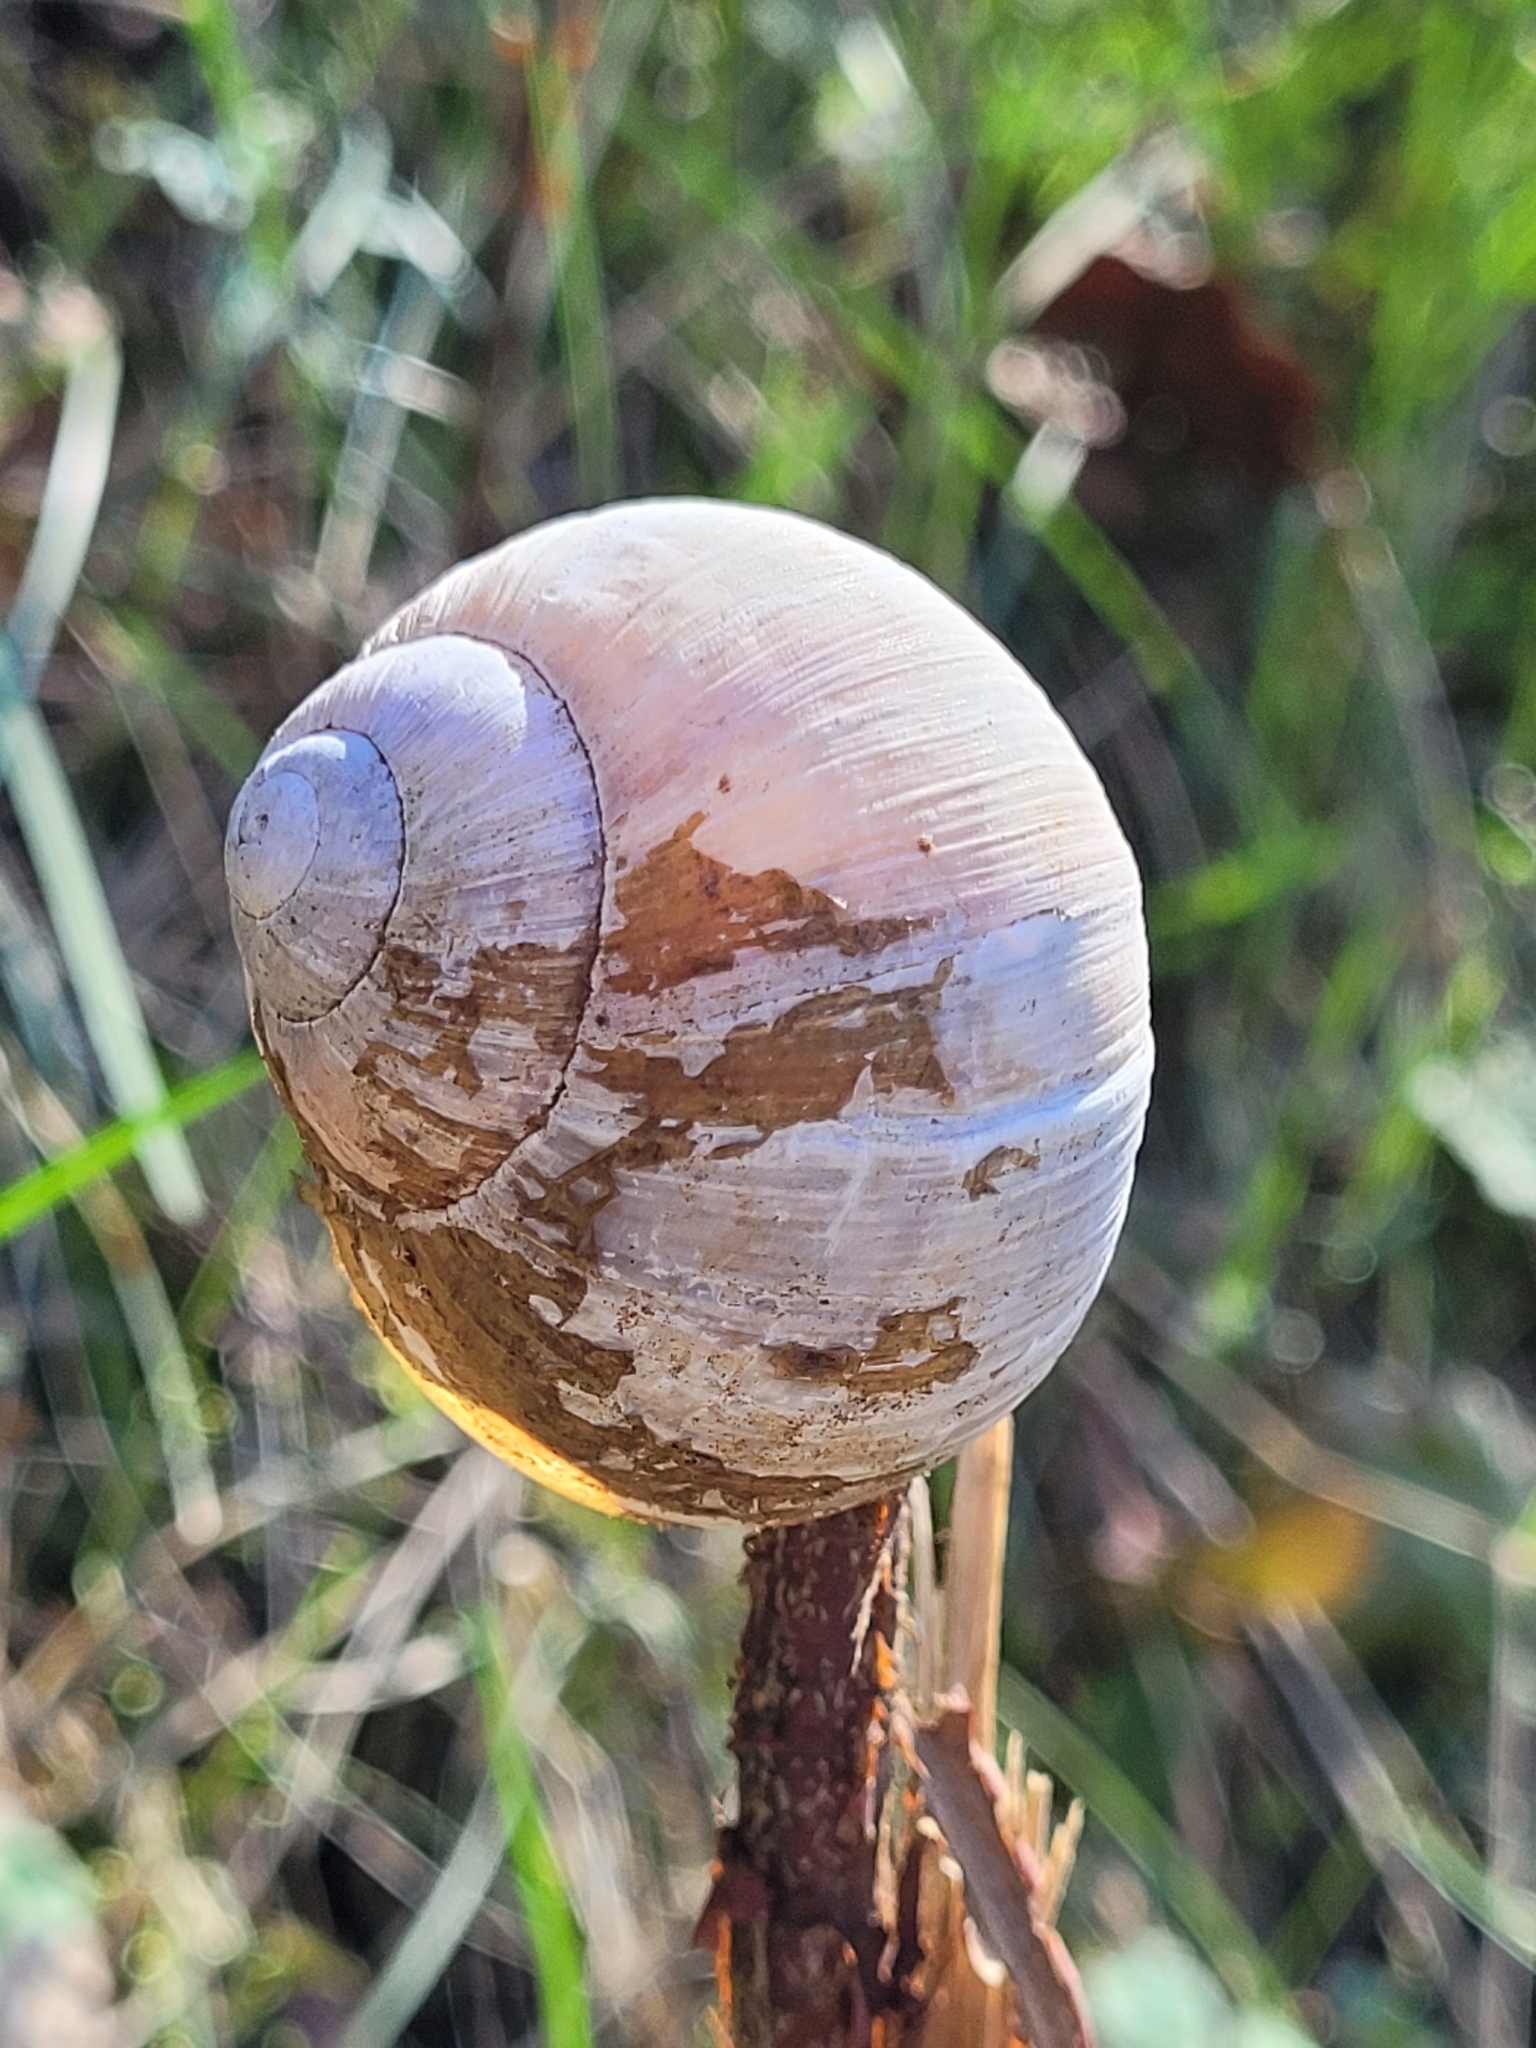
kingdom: Animalia
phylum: Mollusca
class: Gastropoda
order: Stylommatophora
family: Helicidae
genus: Helix
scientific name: Helix pomatia
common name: Roman snail
